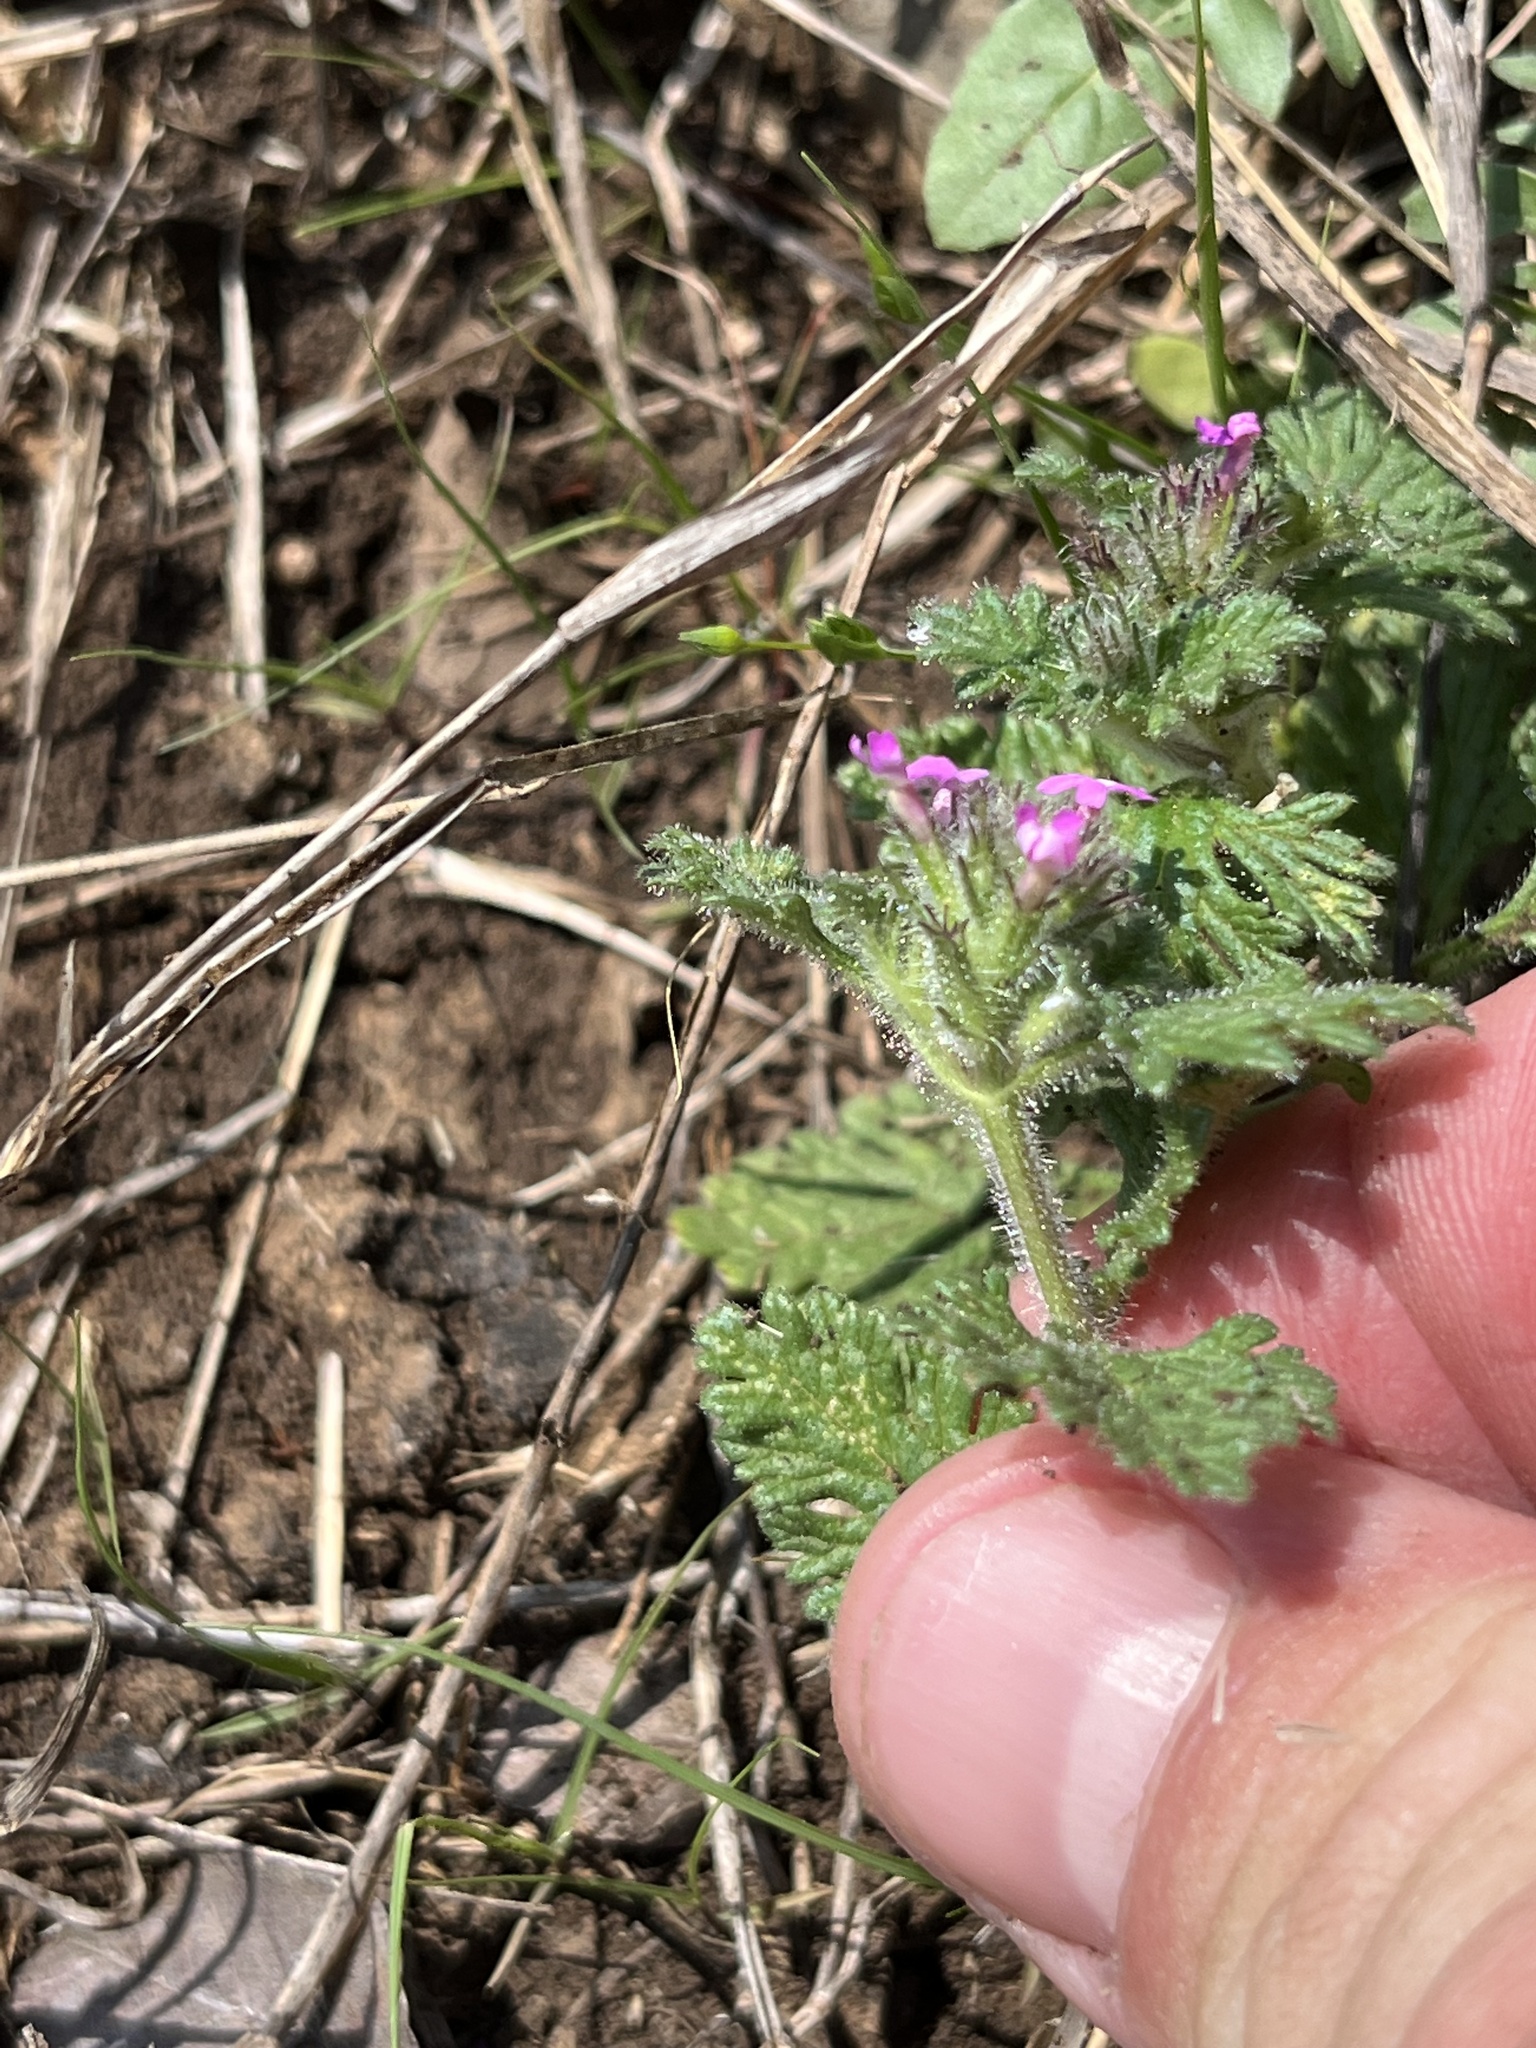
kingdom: Plantae
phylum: Tracheophyta
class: Magnoliopsida
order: Lamiales
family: Verbenaceae
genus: Verbena
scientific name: Verbena pumila
